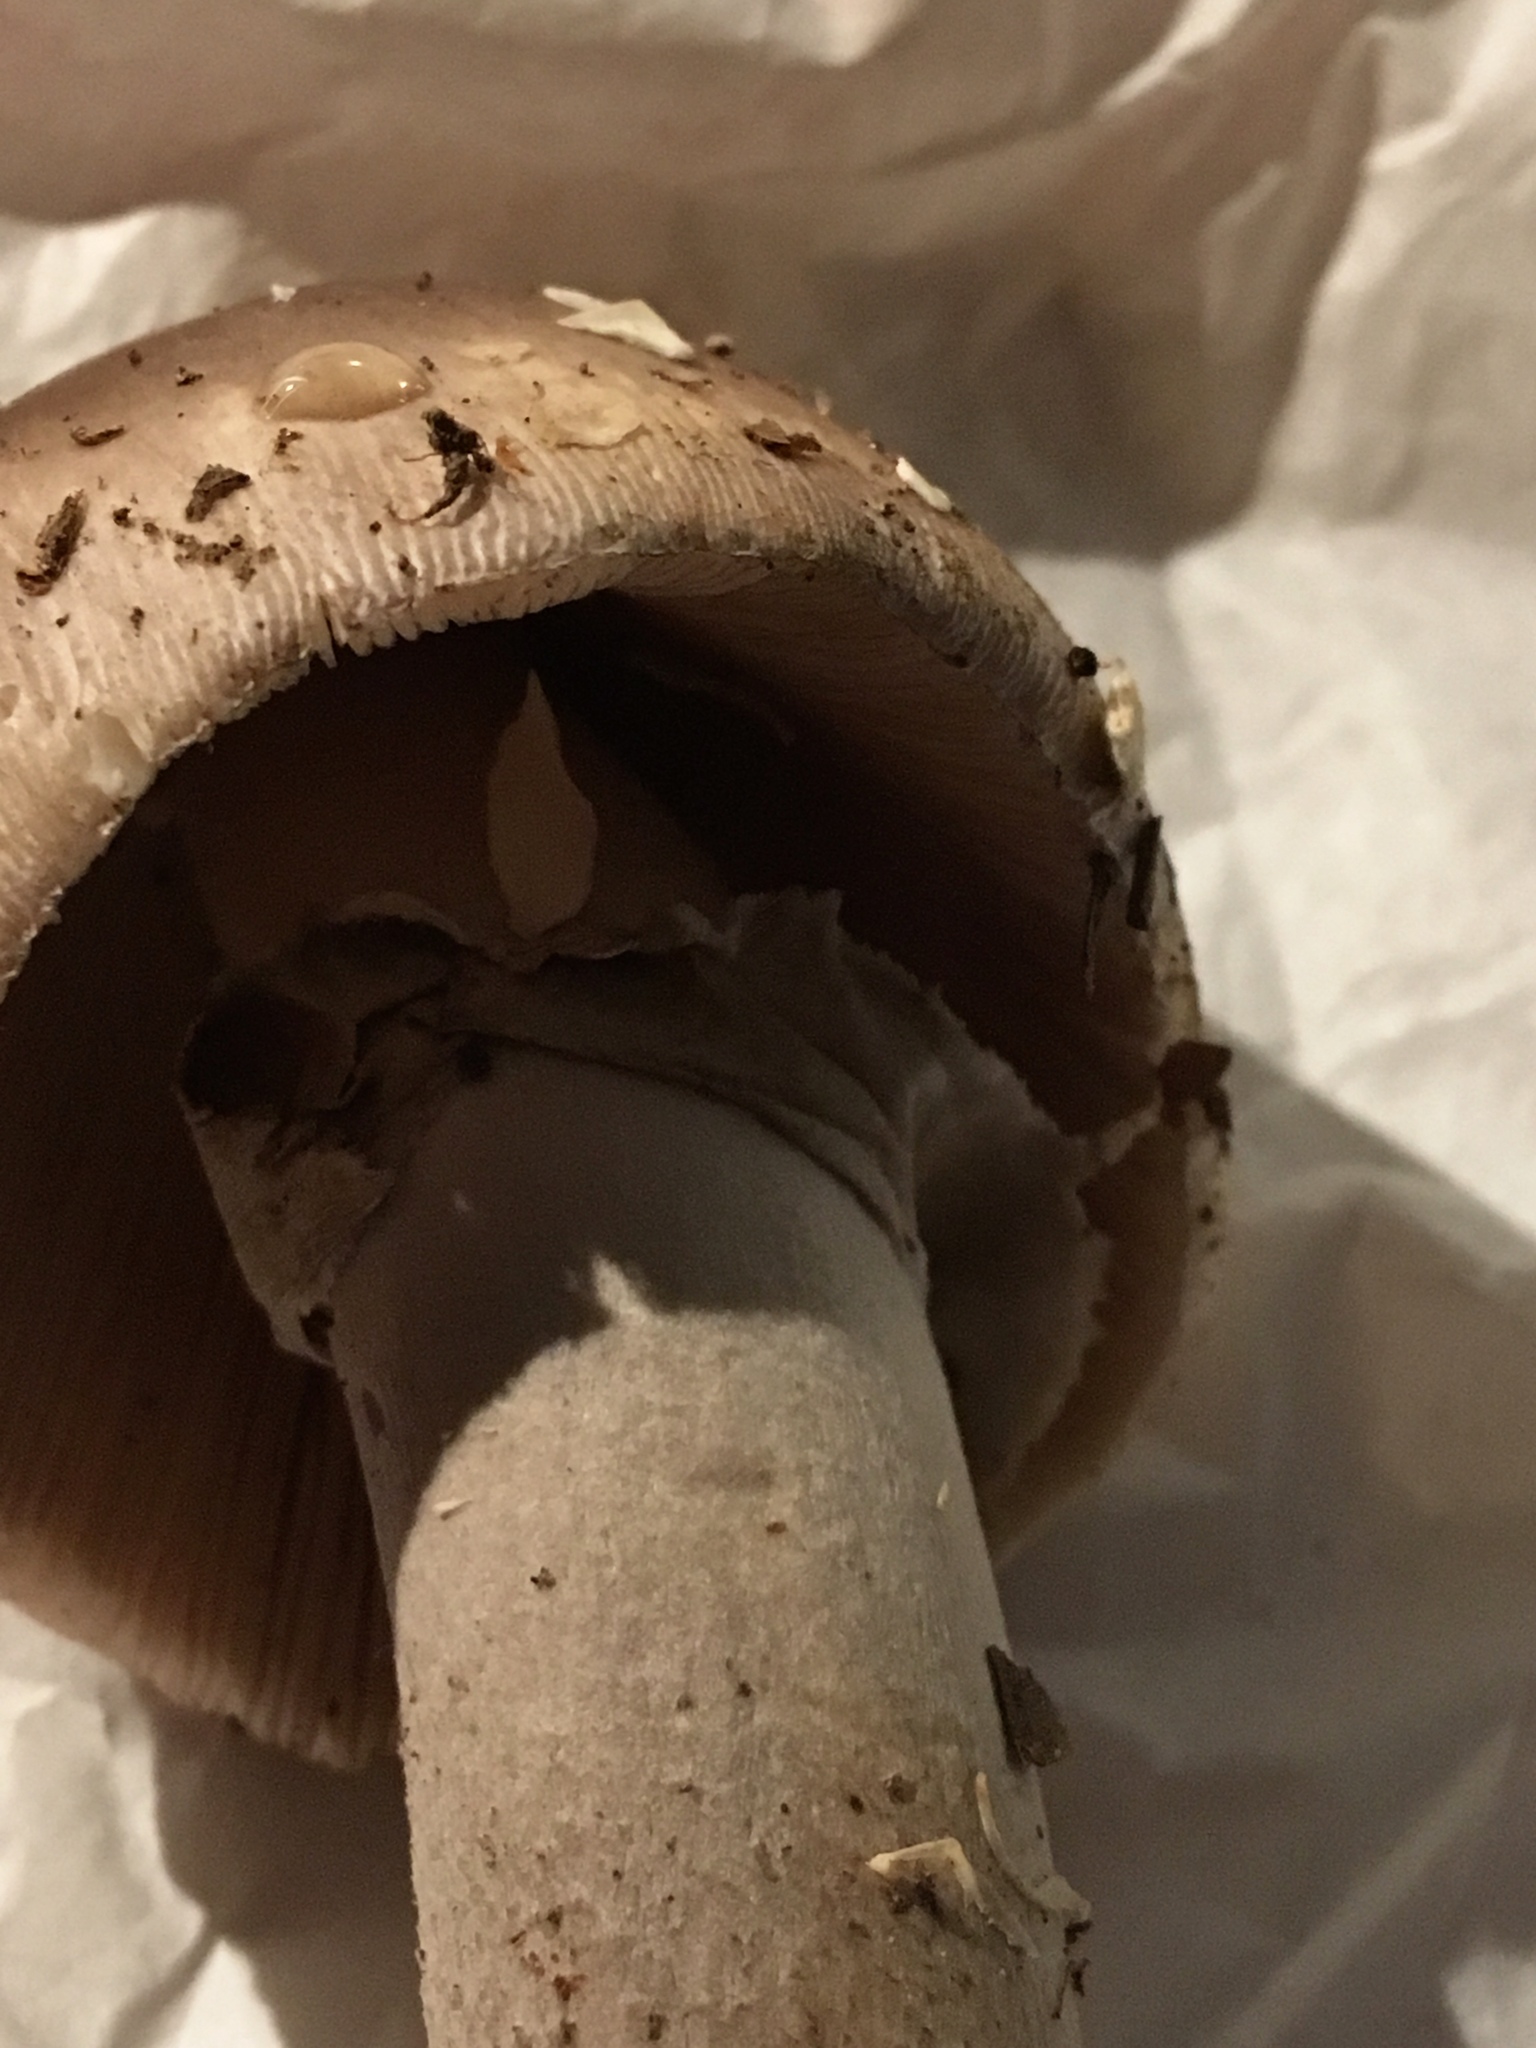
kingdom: Fungi
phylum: Basidiomycota
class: Agaricomycetes
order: Agaricales
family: Amanitaceae
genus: Amanita
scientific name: Amanita spreta
